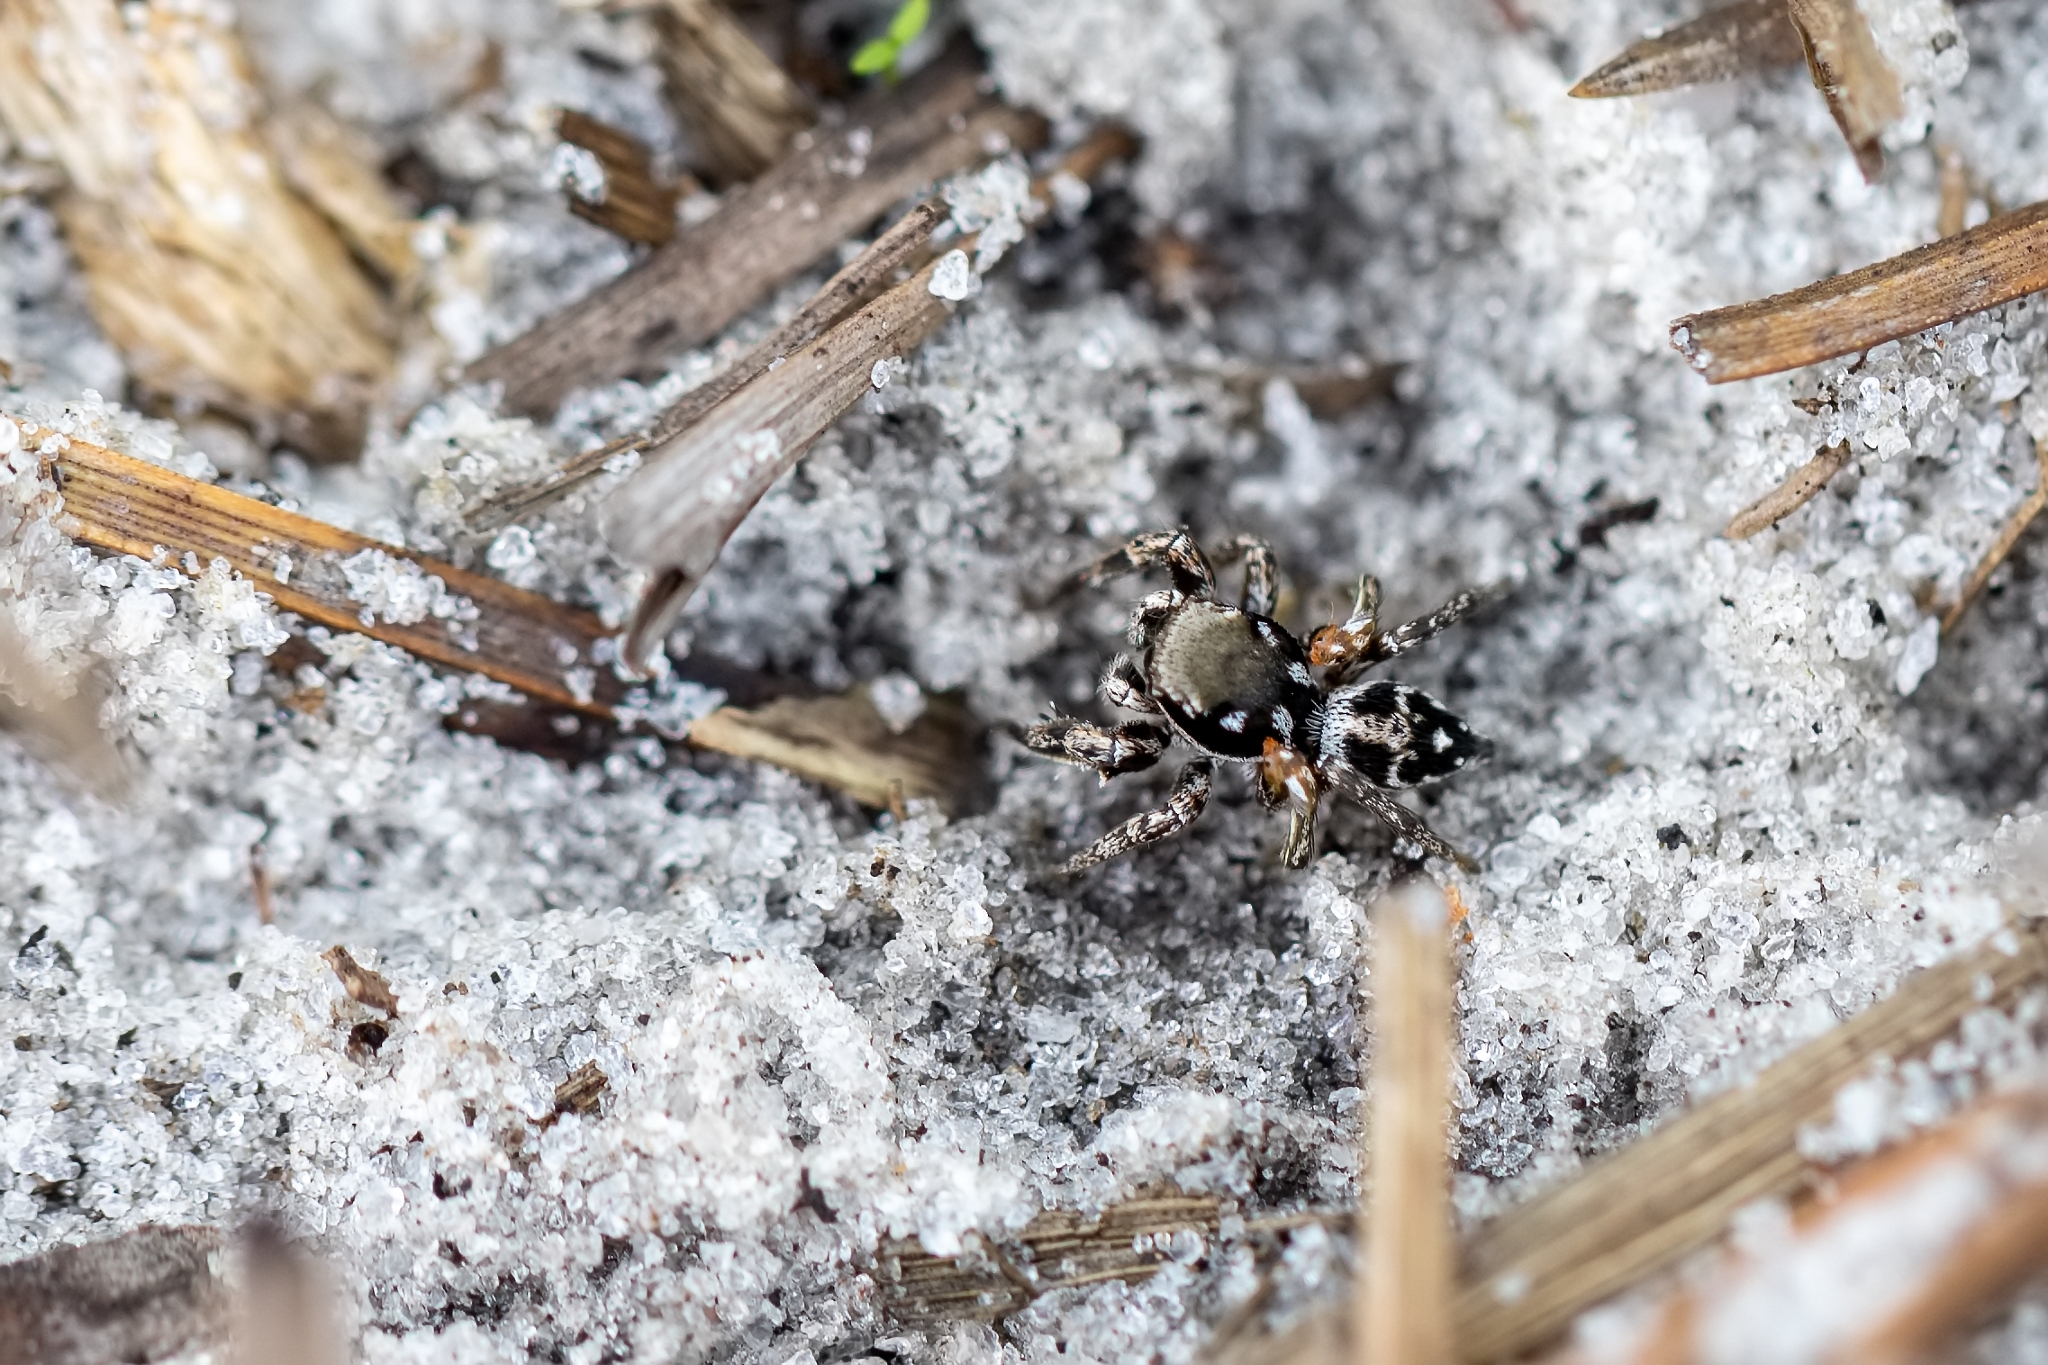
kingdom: Animalia
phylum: Arthropoda
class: Arachnida
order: Araneae
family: Salticidae
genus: Habronattus
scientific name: Habronattus brunneus
